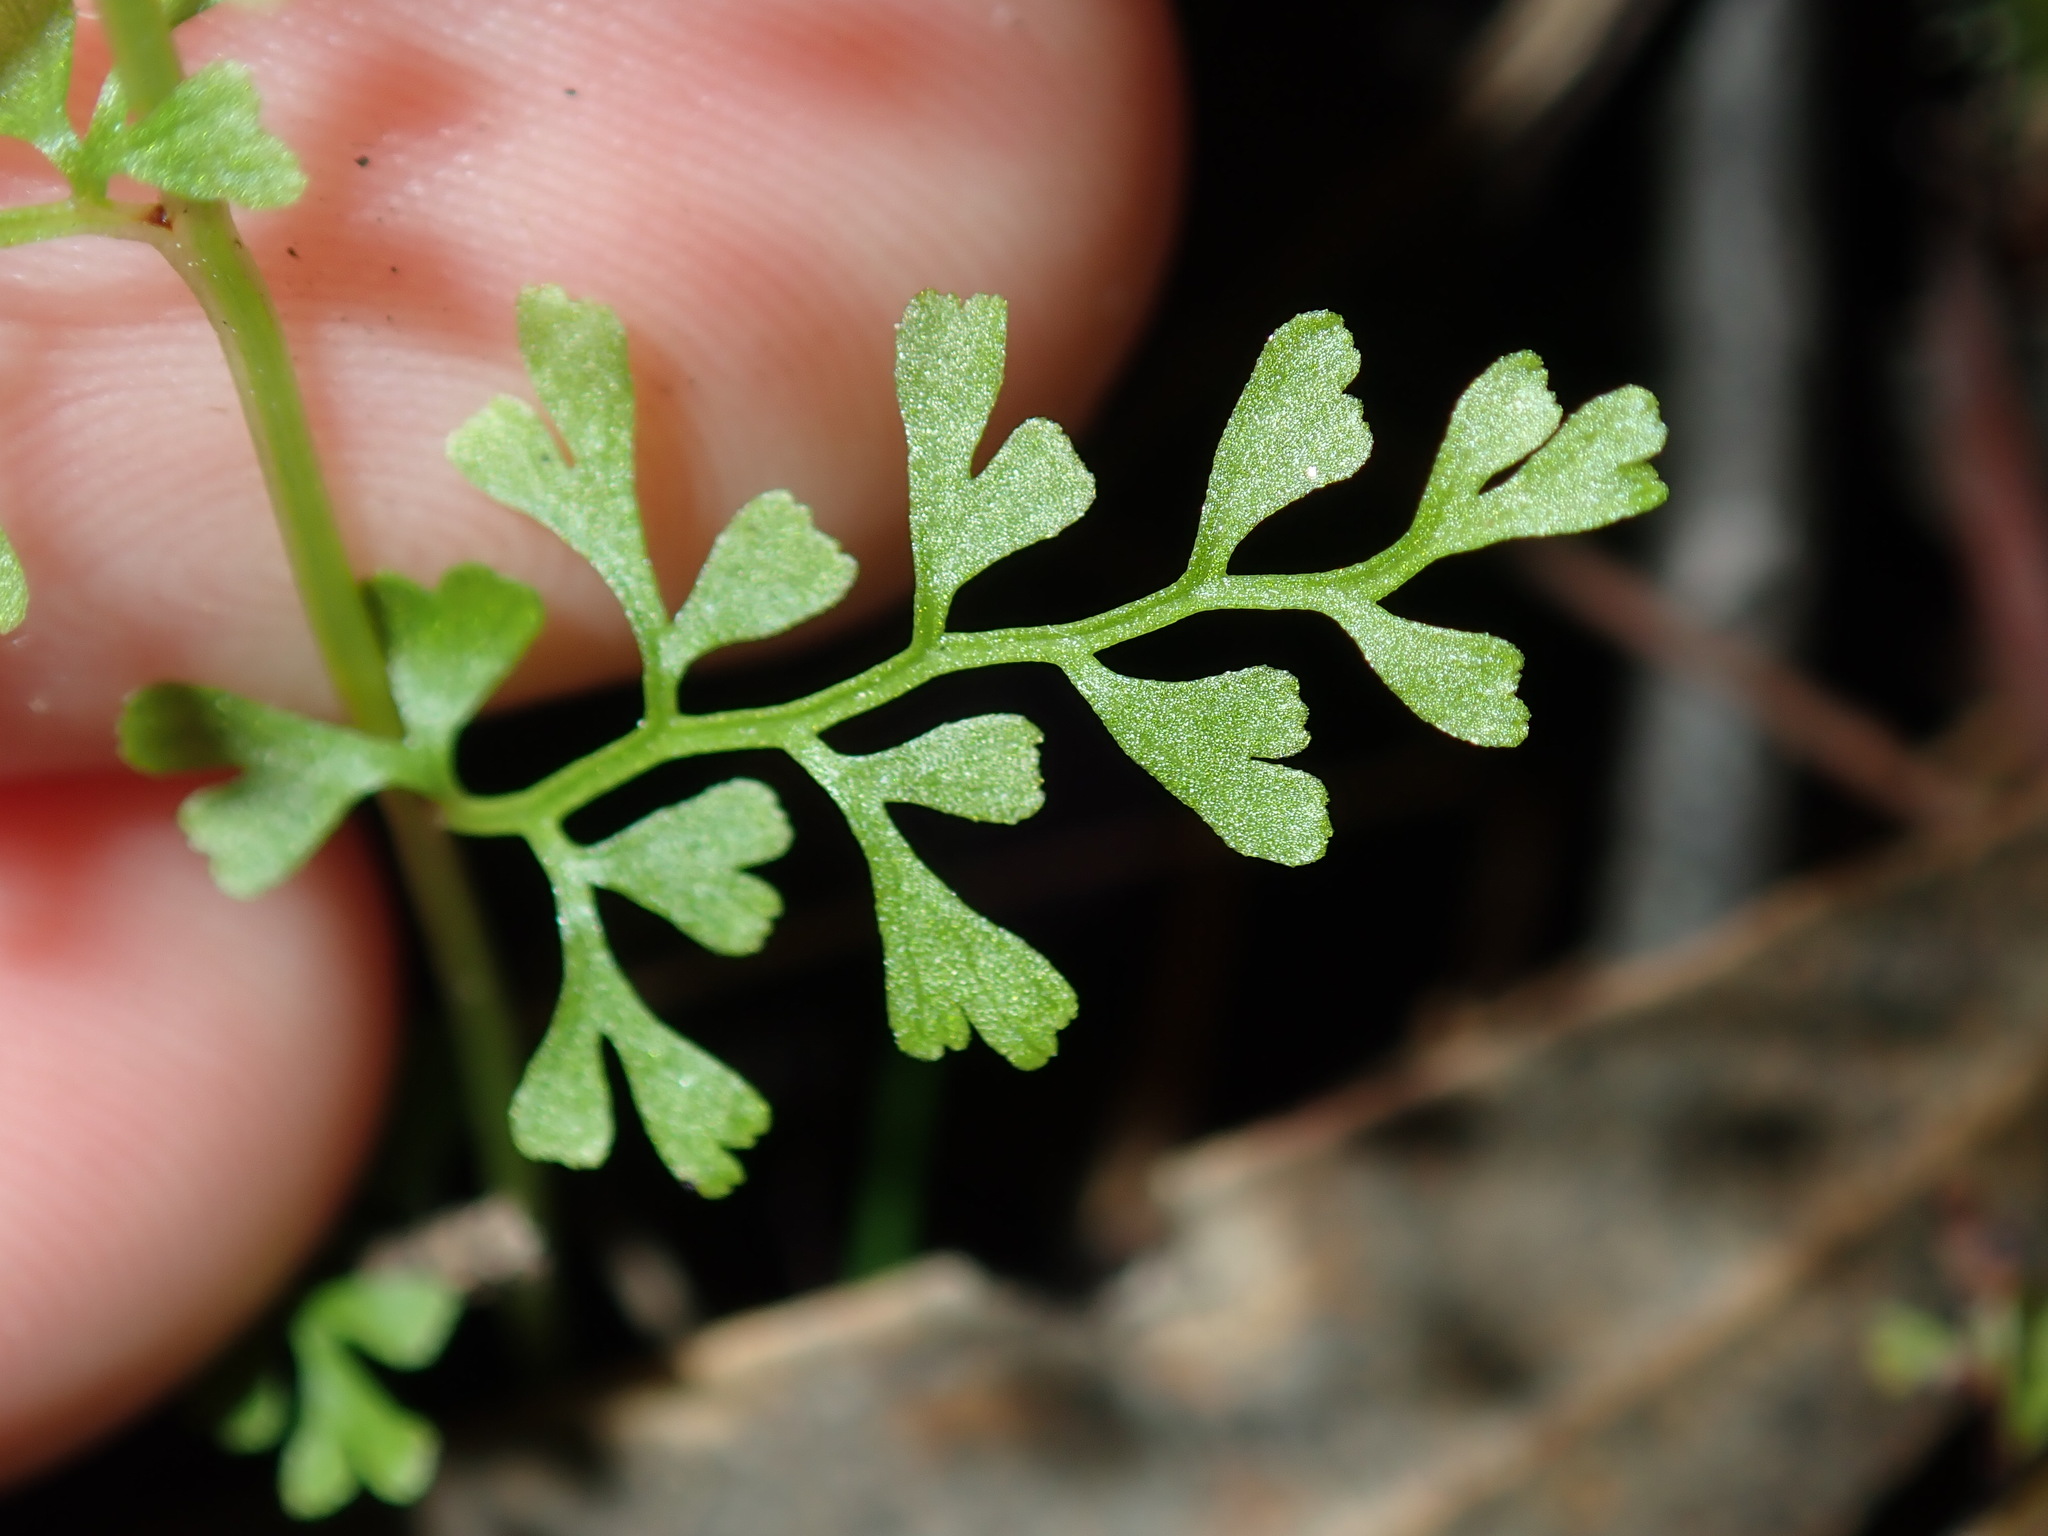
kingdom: Plantae
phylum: Tracheophyta
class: Polypodiopsida
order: Polypodiales
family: Lindsaeaceae
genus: Lindsaea
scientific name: Lindsaea microphylla
